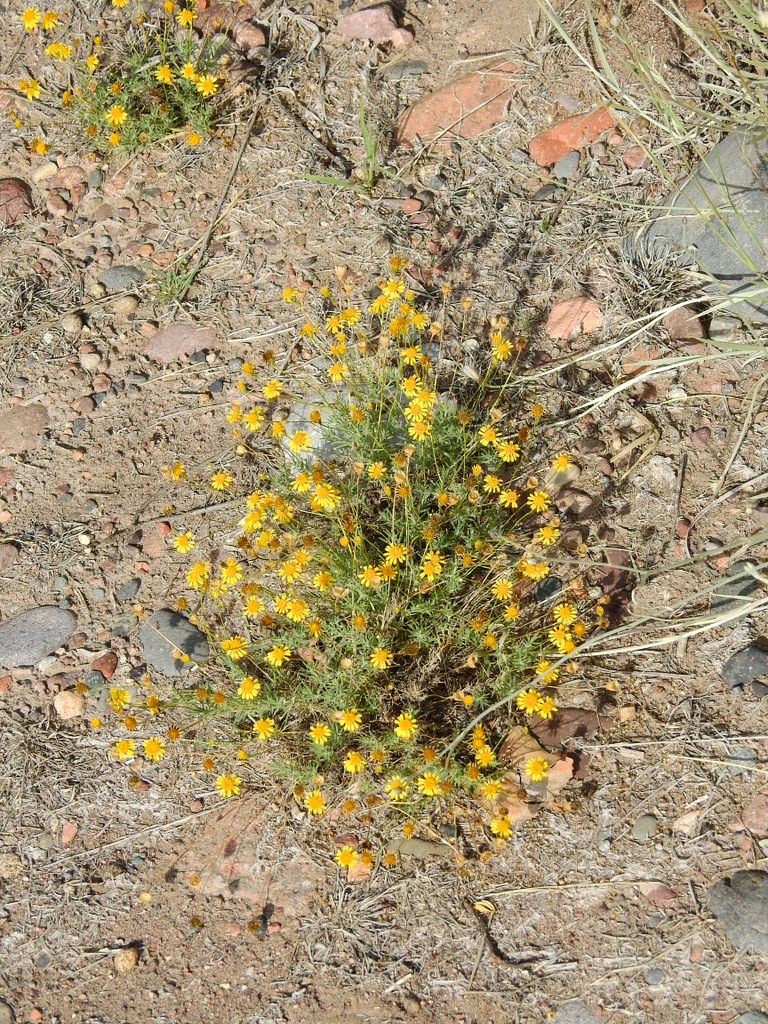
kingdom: Plantae
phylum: Tracheophyta
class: Magnoliopsida
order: Asterales
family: Asteraceae
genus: Thymophylla
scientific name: Thymophylla pentachaeta
